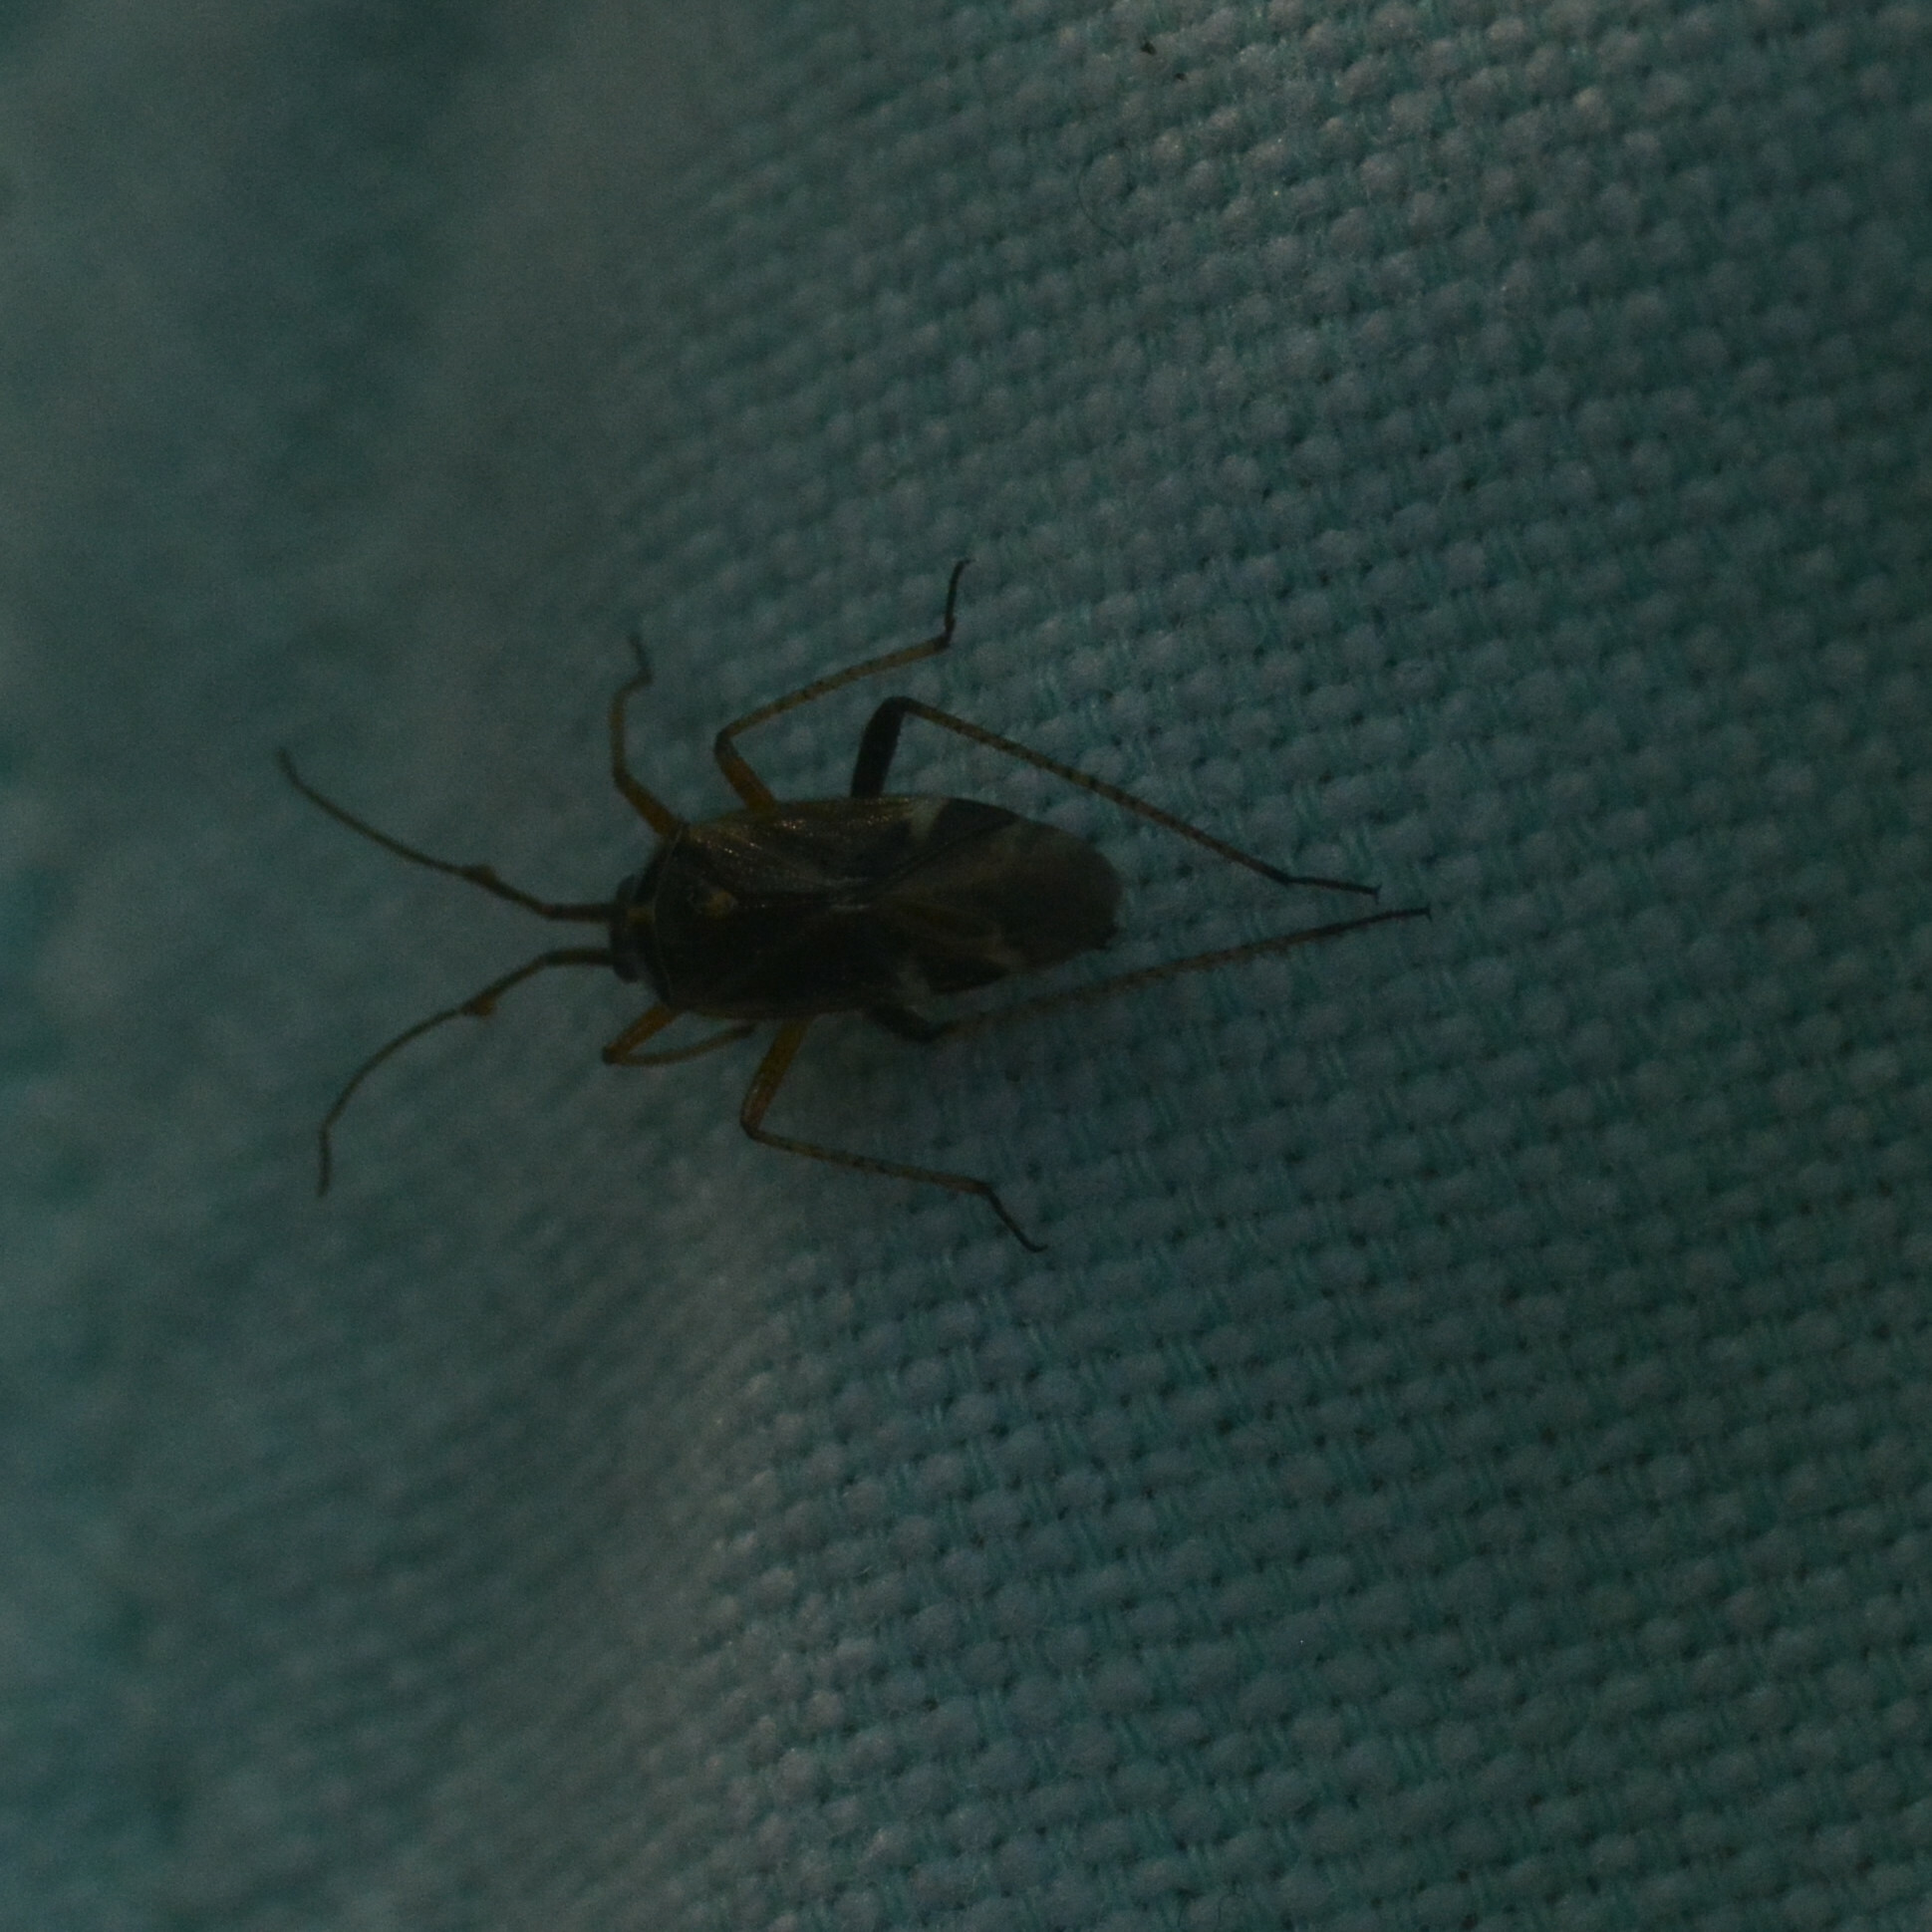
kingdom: Animalia
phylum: Arthropoda
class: Insecta
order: Hemiptera
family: Miridae
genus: Harpocera
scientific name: Harpocera thoracica
